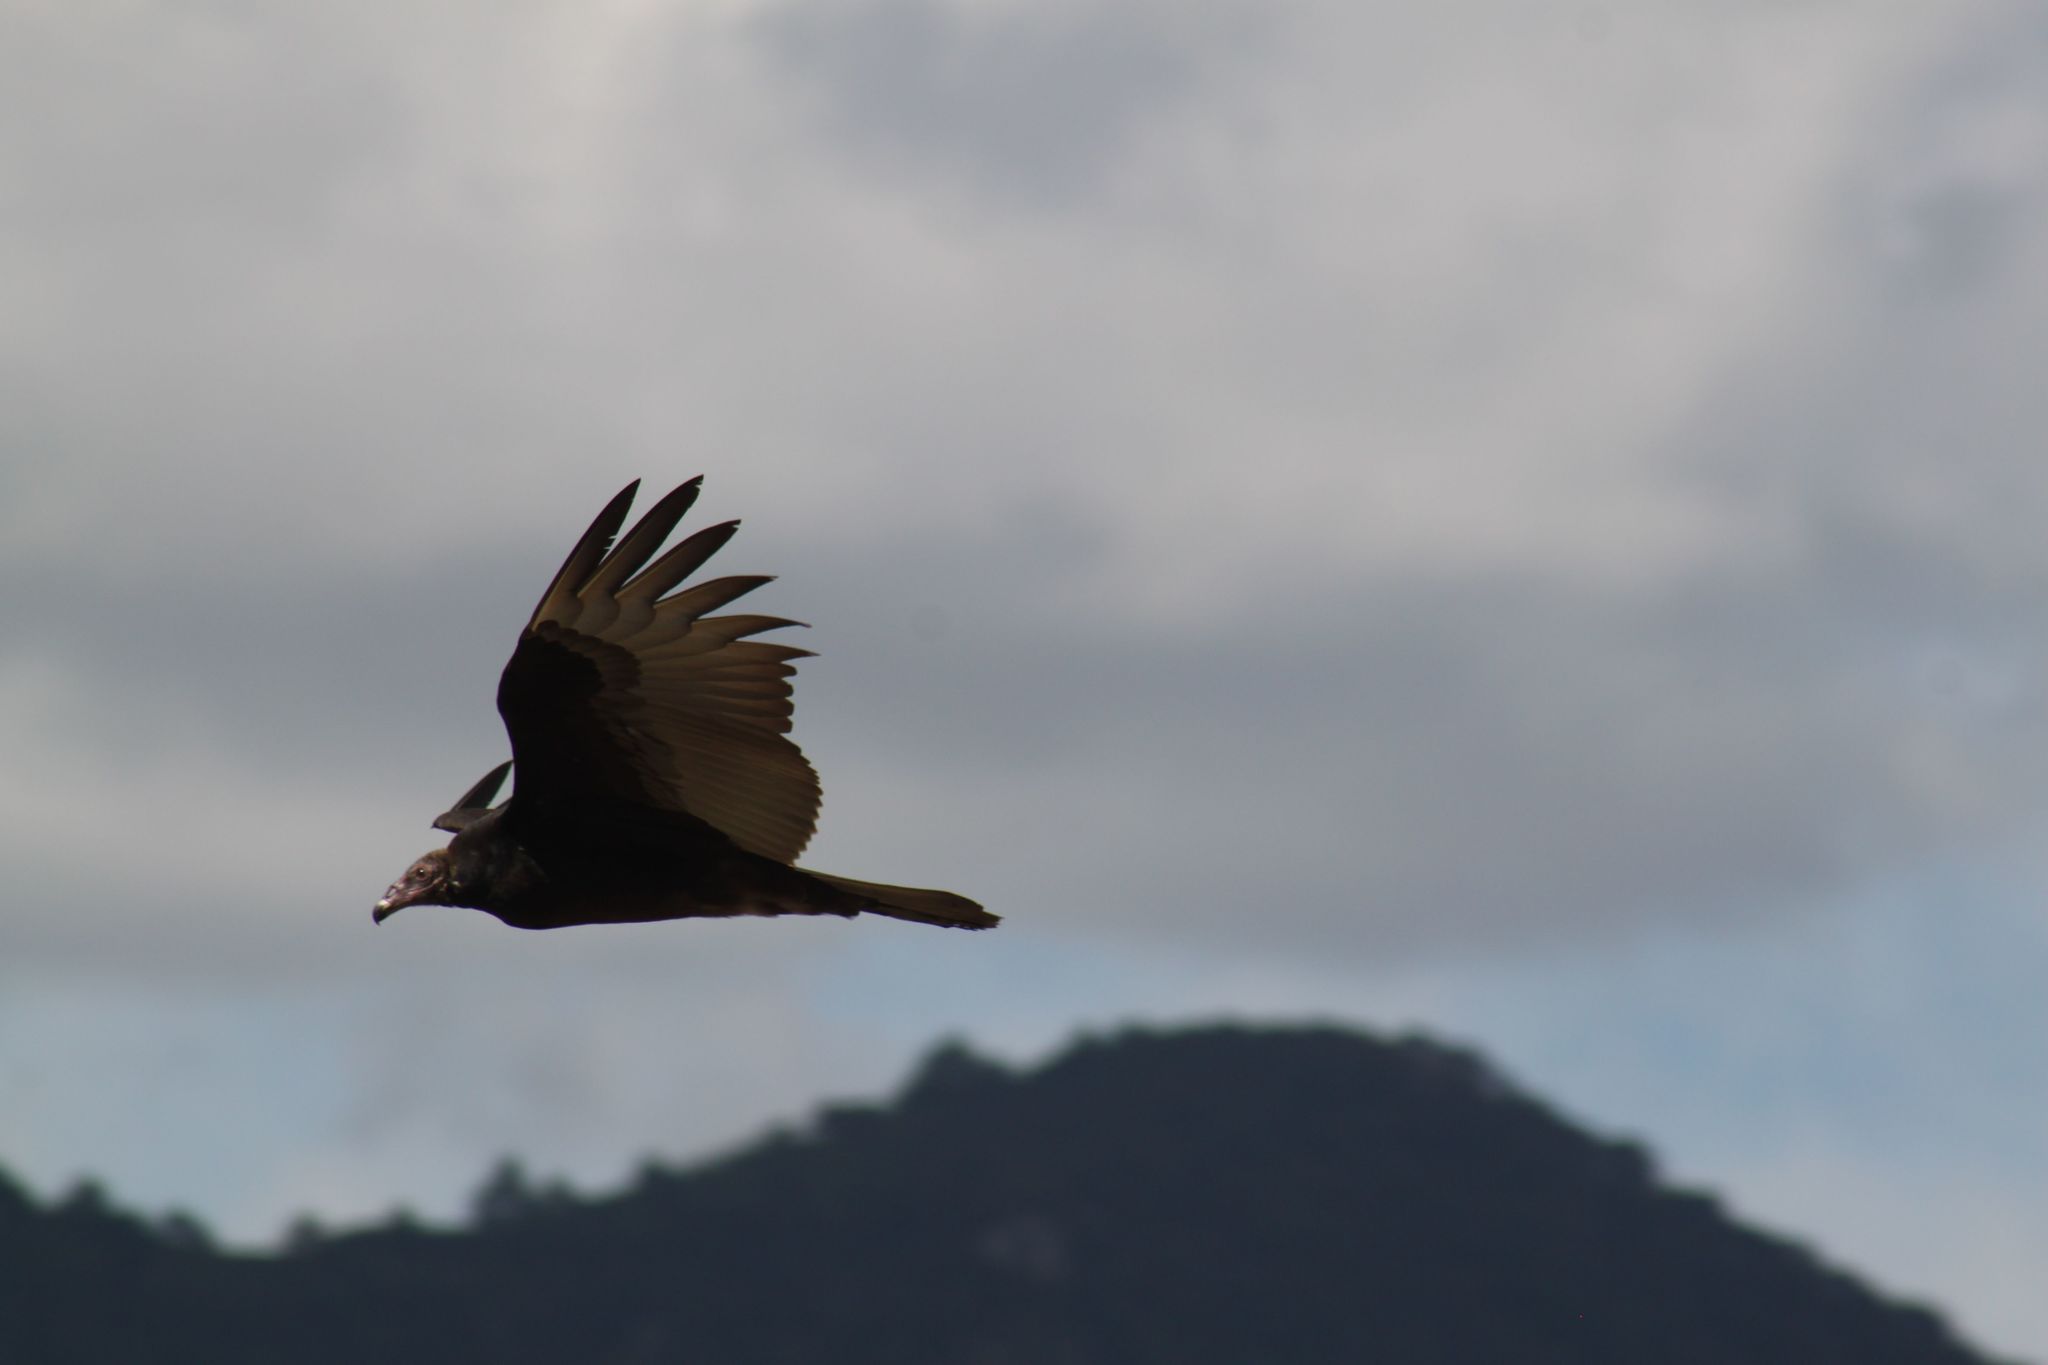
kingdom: Animalia
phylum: Chordata
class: Aves
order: Accipitriformes
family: Cathartidae
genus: Cathartes
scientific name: Cathartes aura
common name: Turkey vulture
